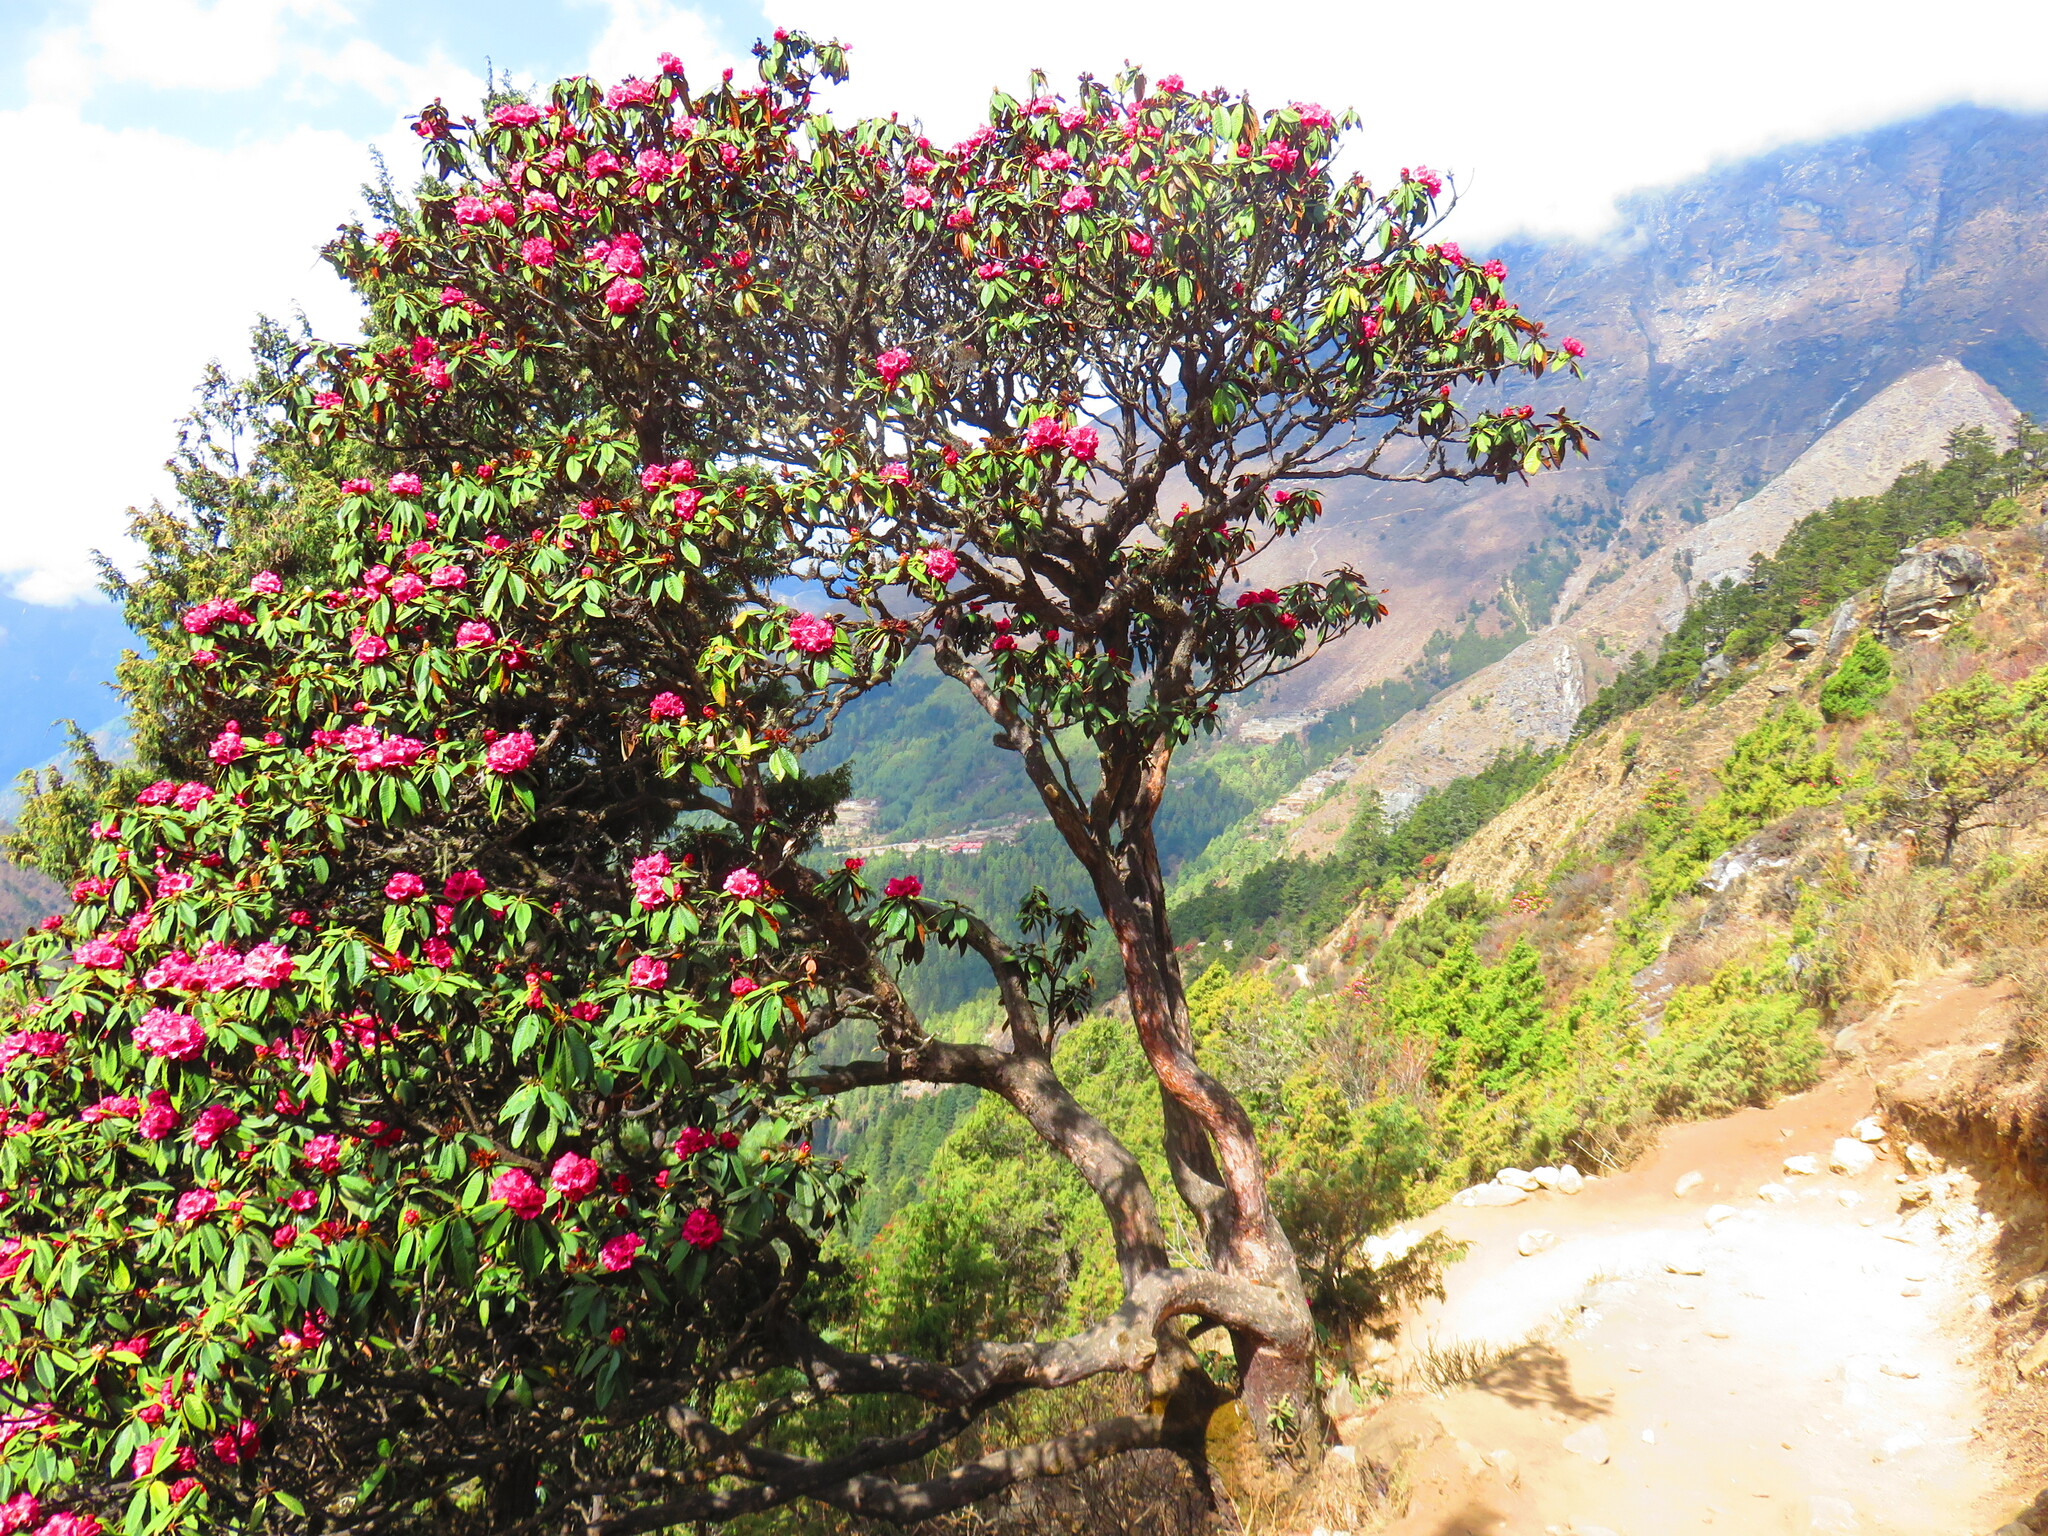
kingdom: Plantae
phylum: Tracheophyta
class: Magnoliopsida
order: Ericales
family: Ericaceae
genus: Rhododendron
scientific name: Rhododendron arboreum
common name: Tree rhododendron
